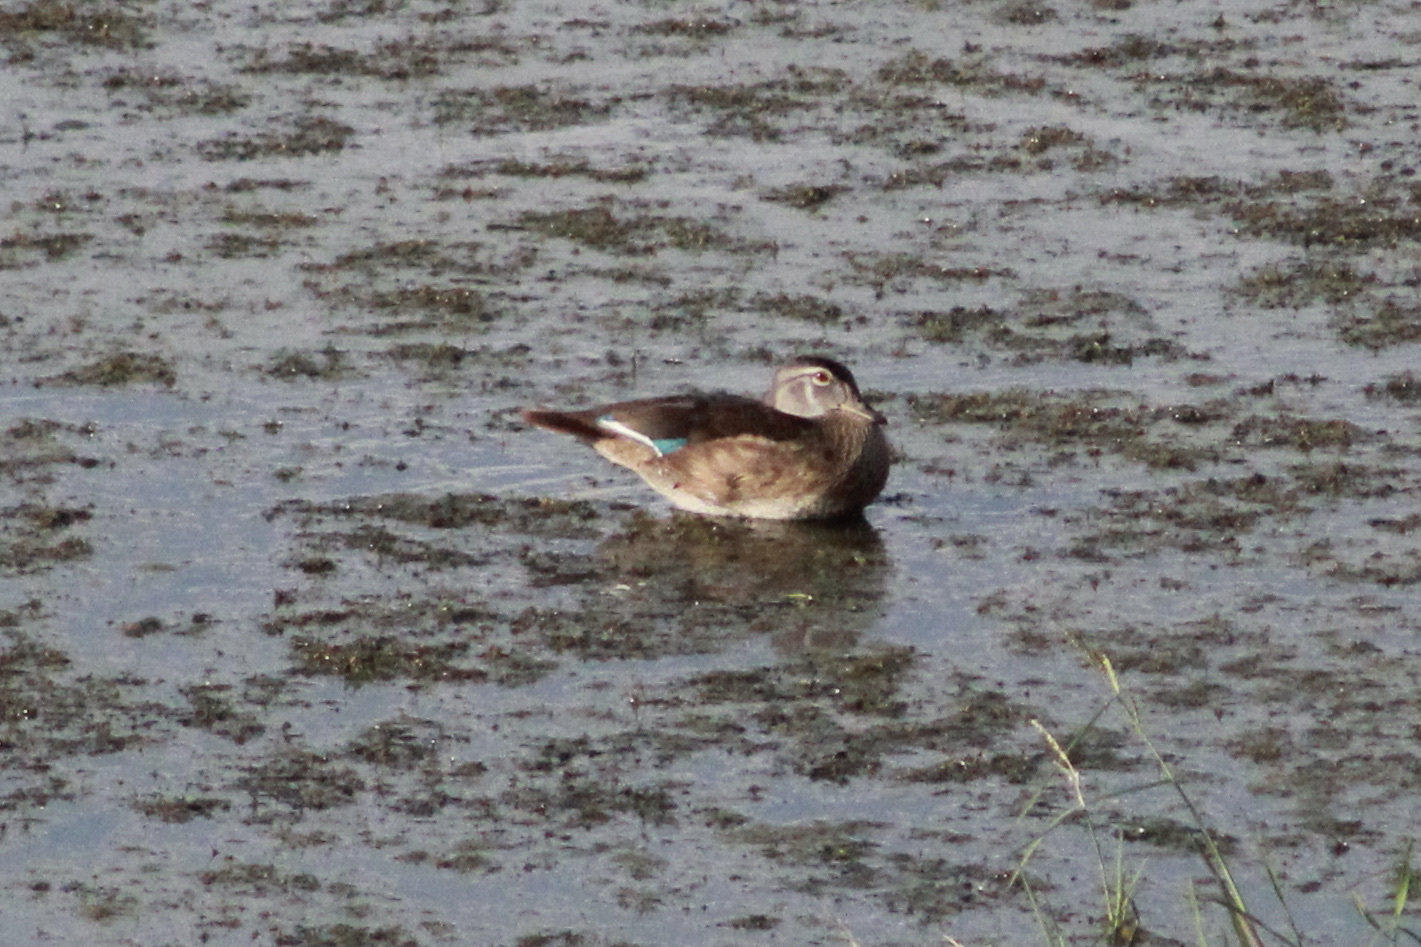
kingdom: Animalia
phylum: Chordata
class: Aves
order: Anseriformes
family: Anatidae
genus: Aix
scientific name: Aix sponsa
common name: Wood duck
